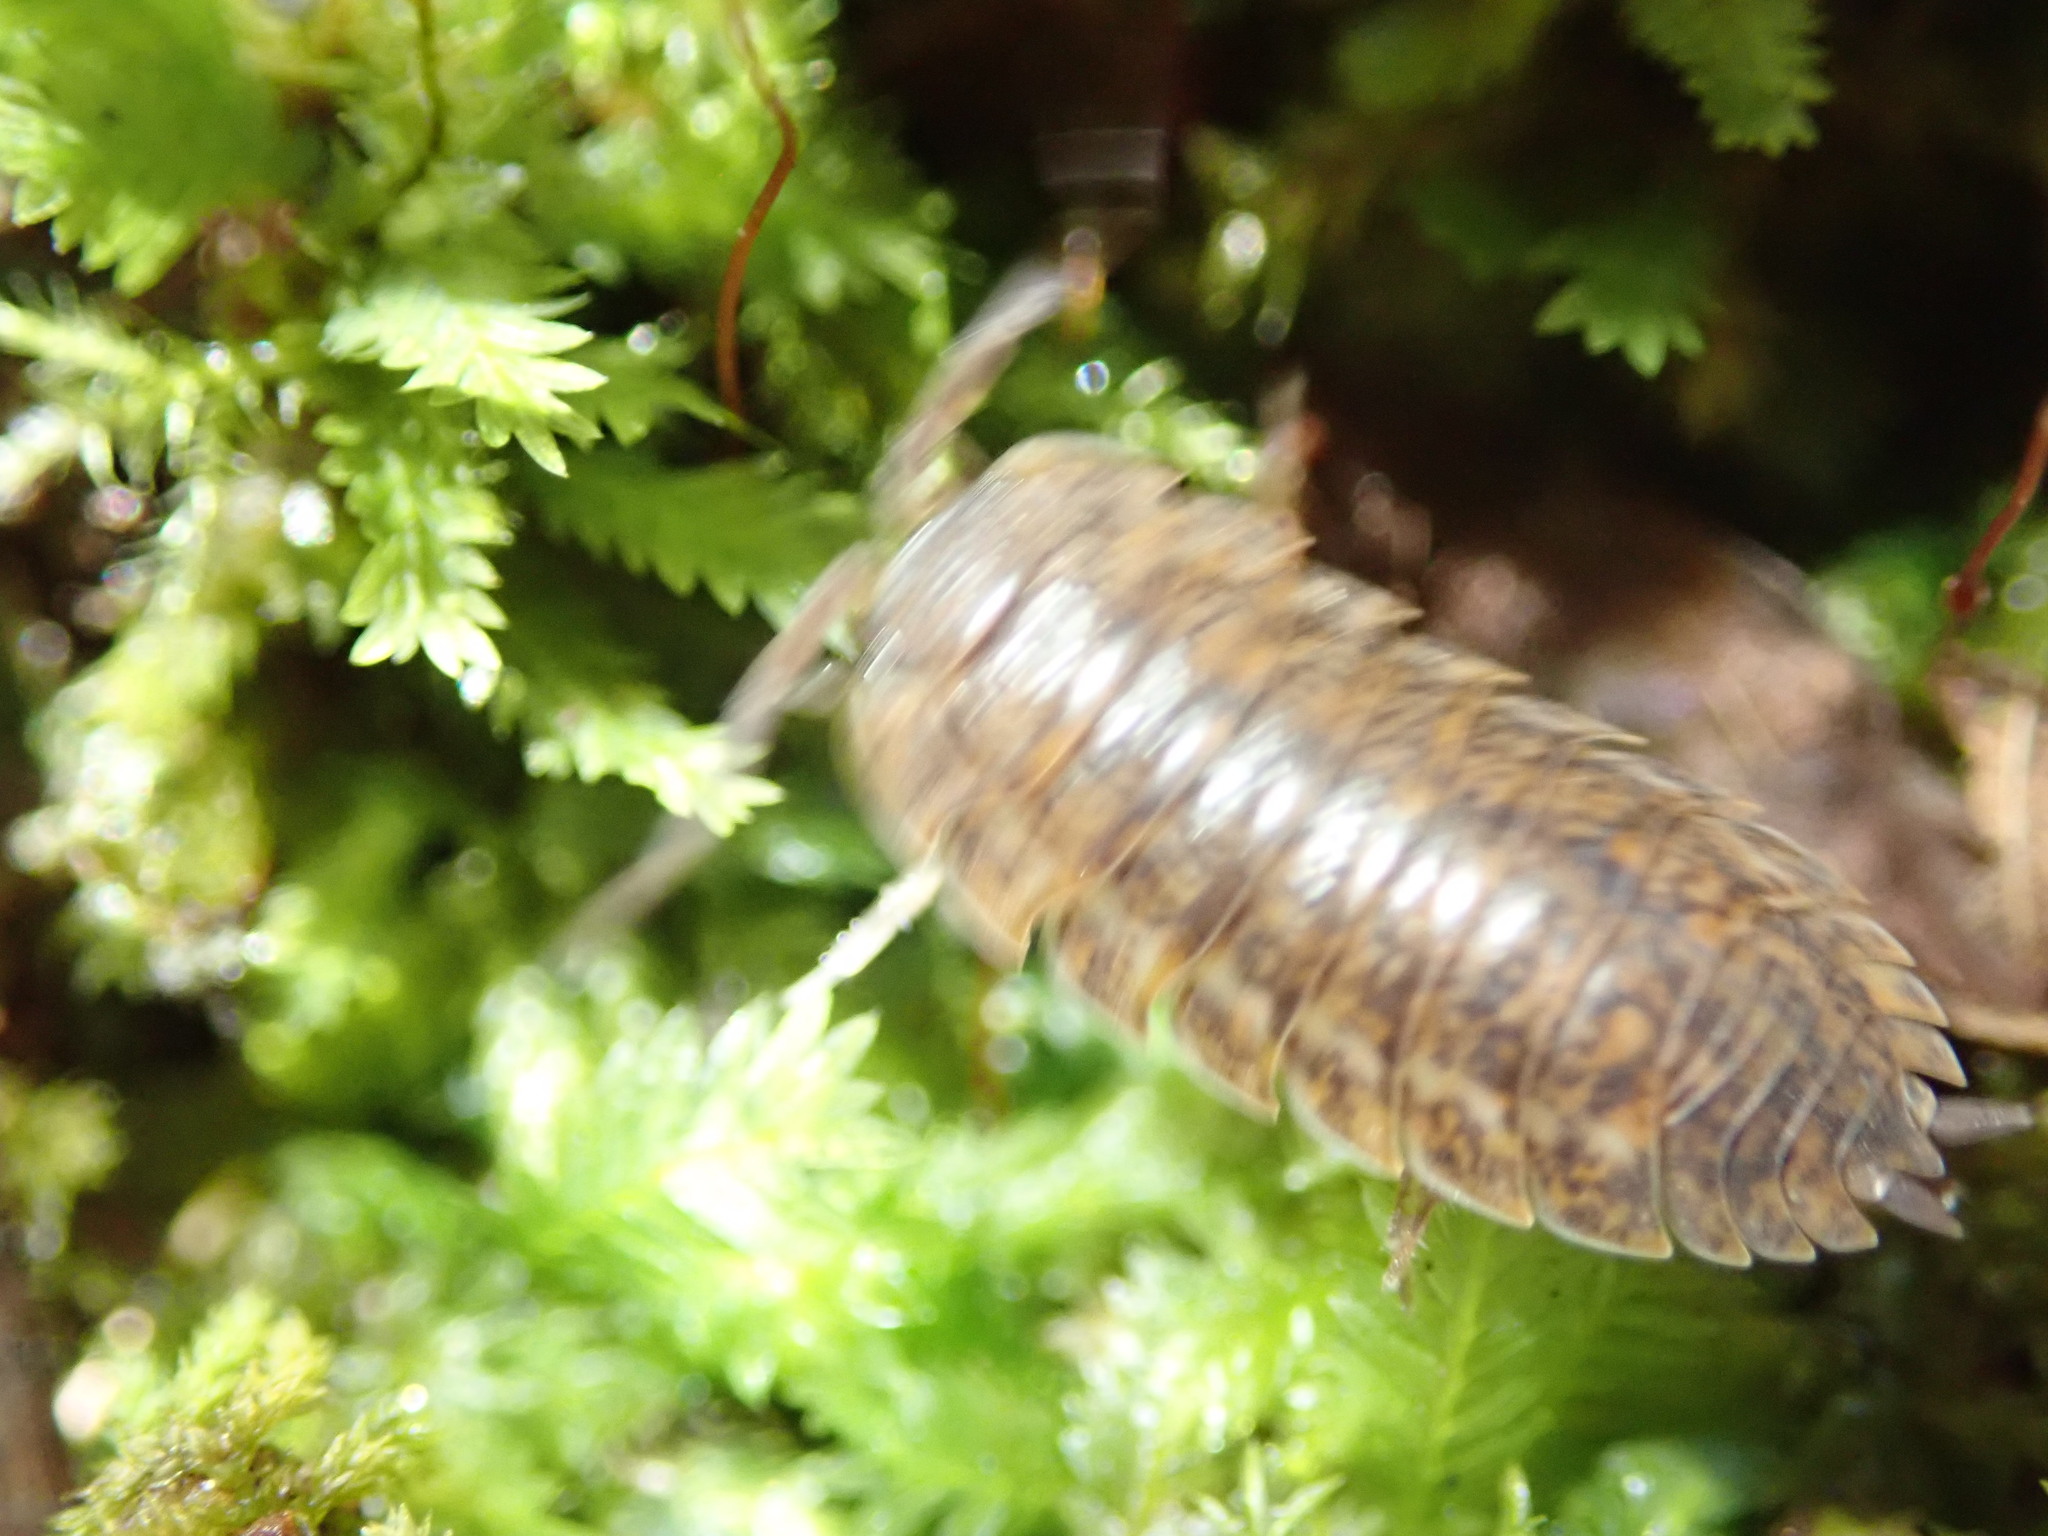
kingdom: Animalia
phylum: Arthropoda
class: Malacostraca
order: Isopoda
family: Trachelipodidae
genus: Trachelipus
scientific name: Trachelipus rathkii
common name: Isopod
